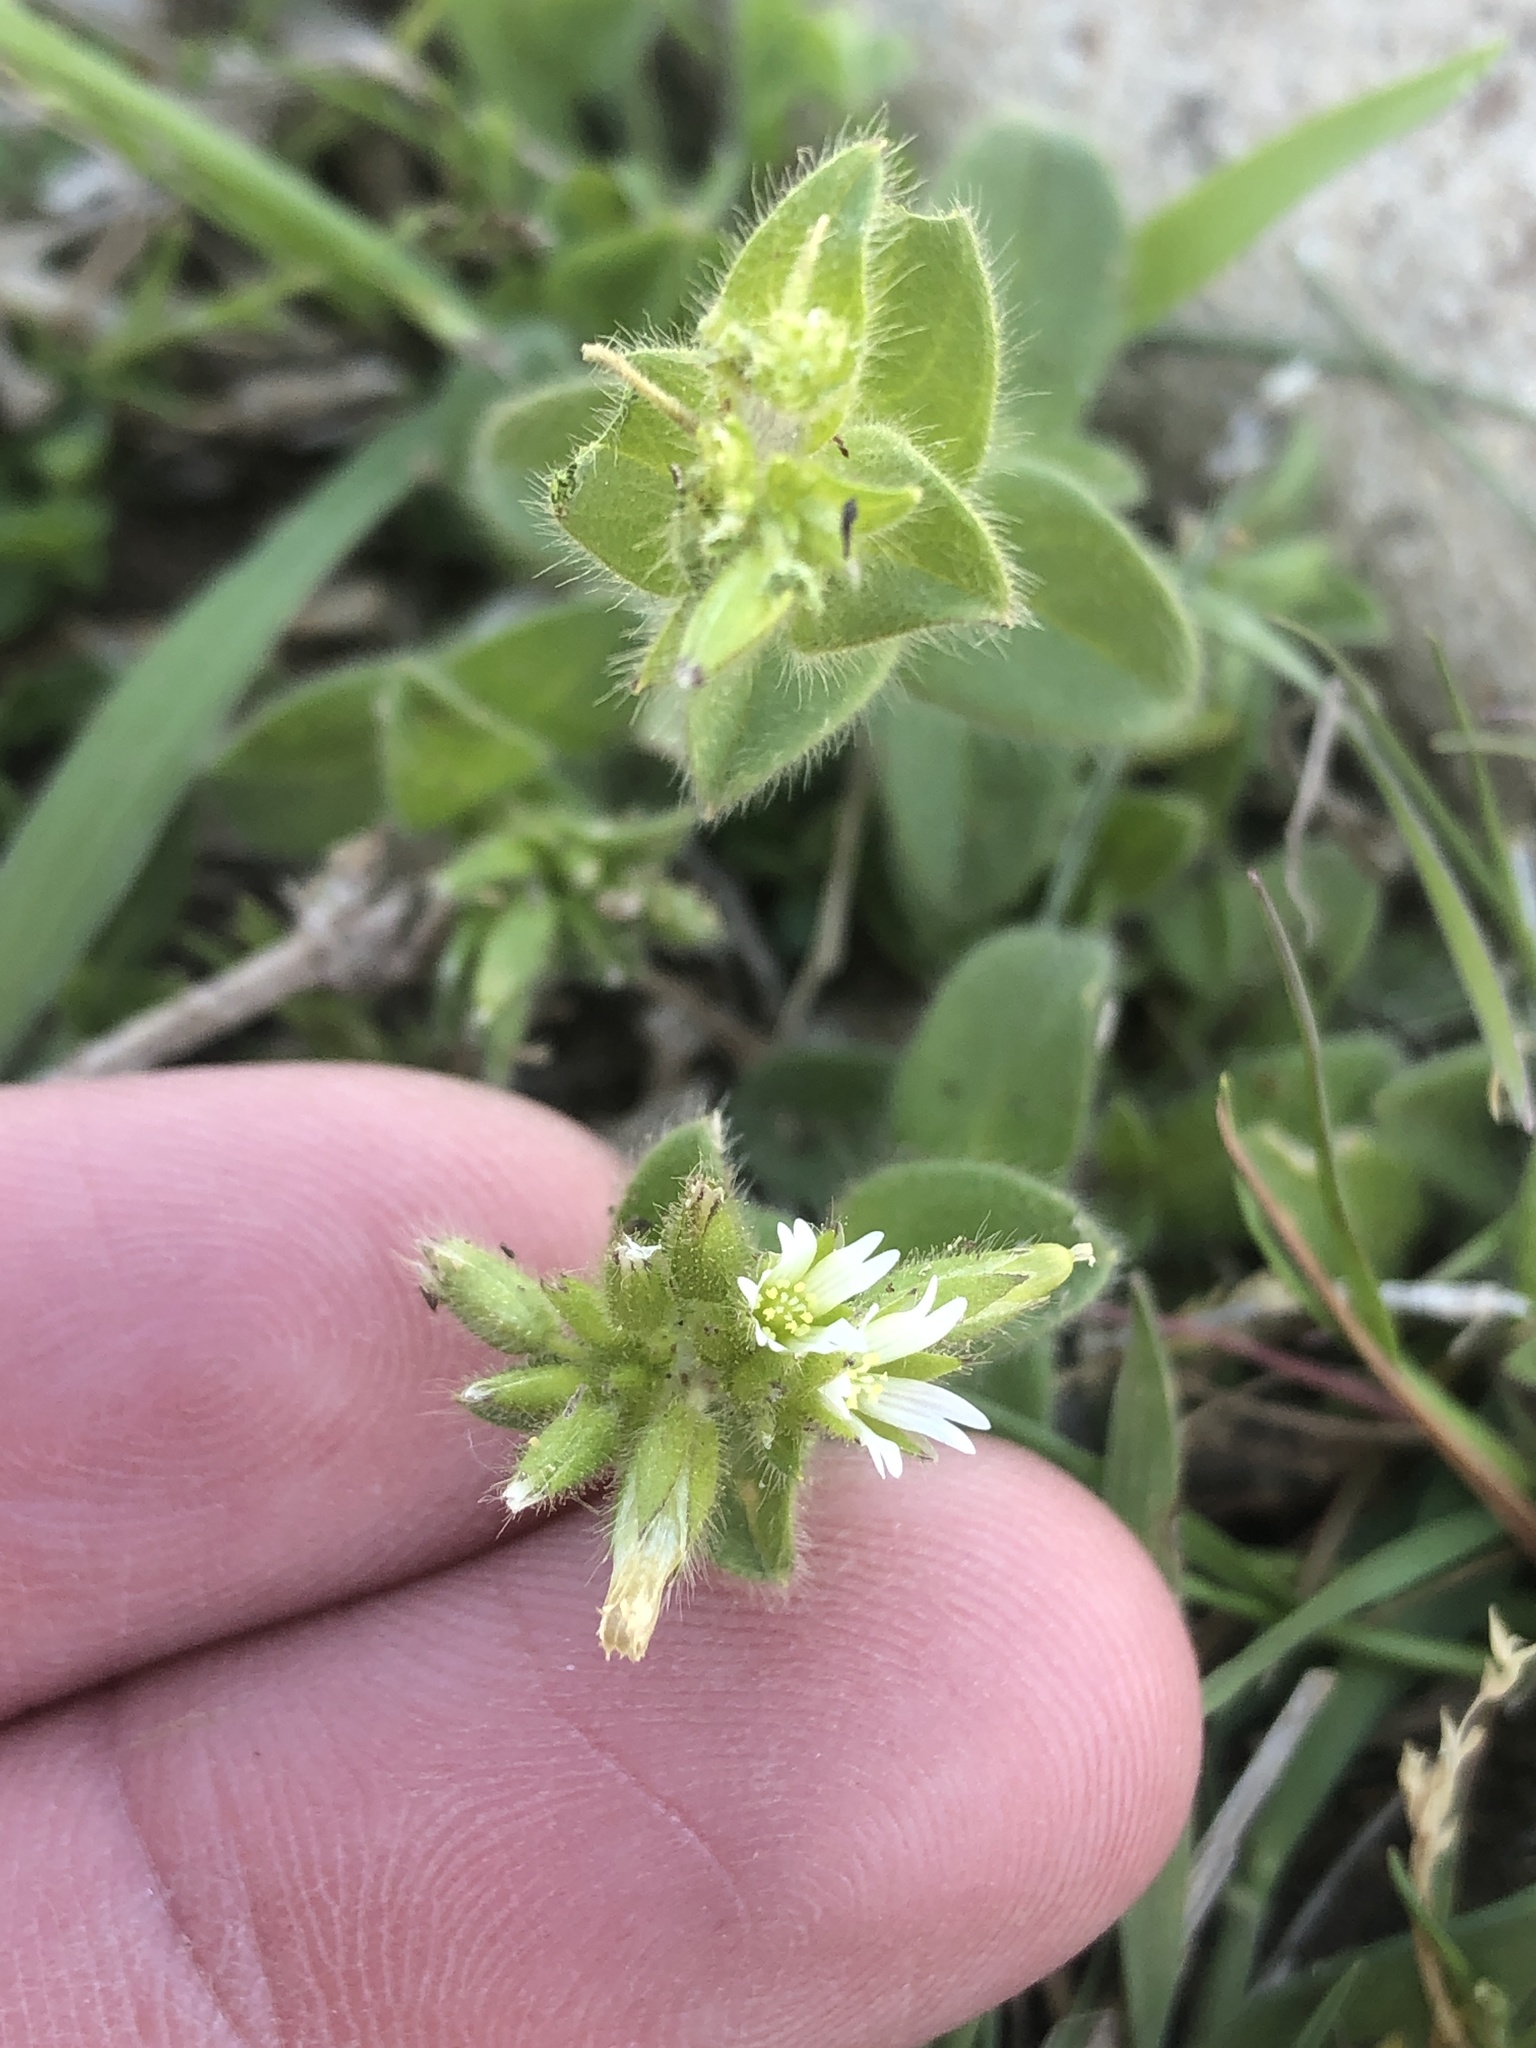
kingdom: Plantae
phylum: Tracheophyta
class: Magnoliopsida
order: Caryophyllales
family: Caryophyllaceae
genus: Cerastium
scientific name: Cerastium glomeratum
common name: Sticky chickweed
